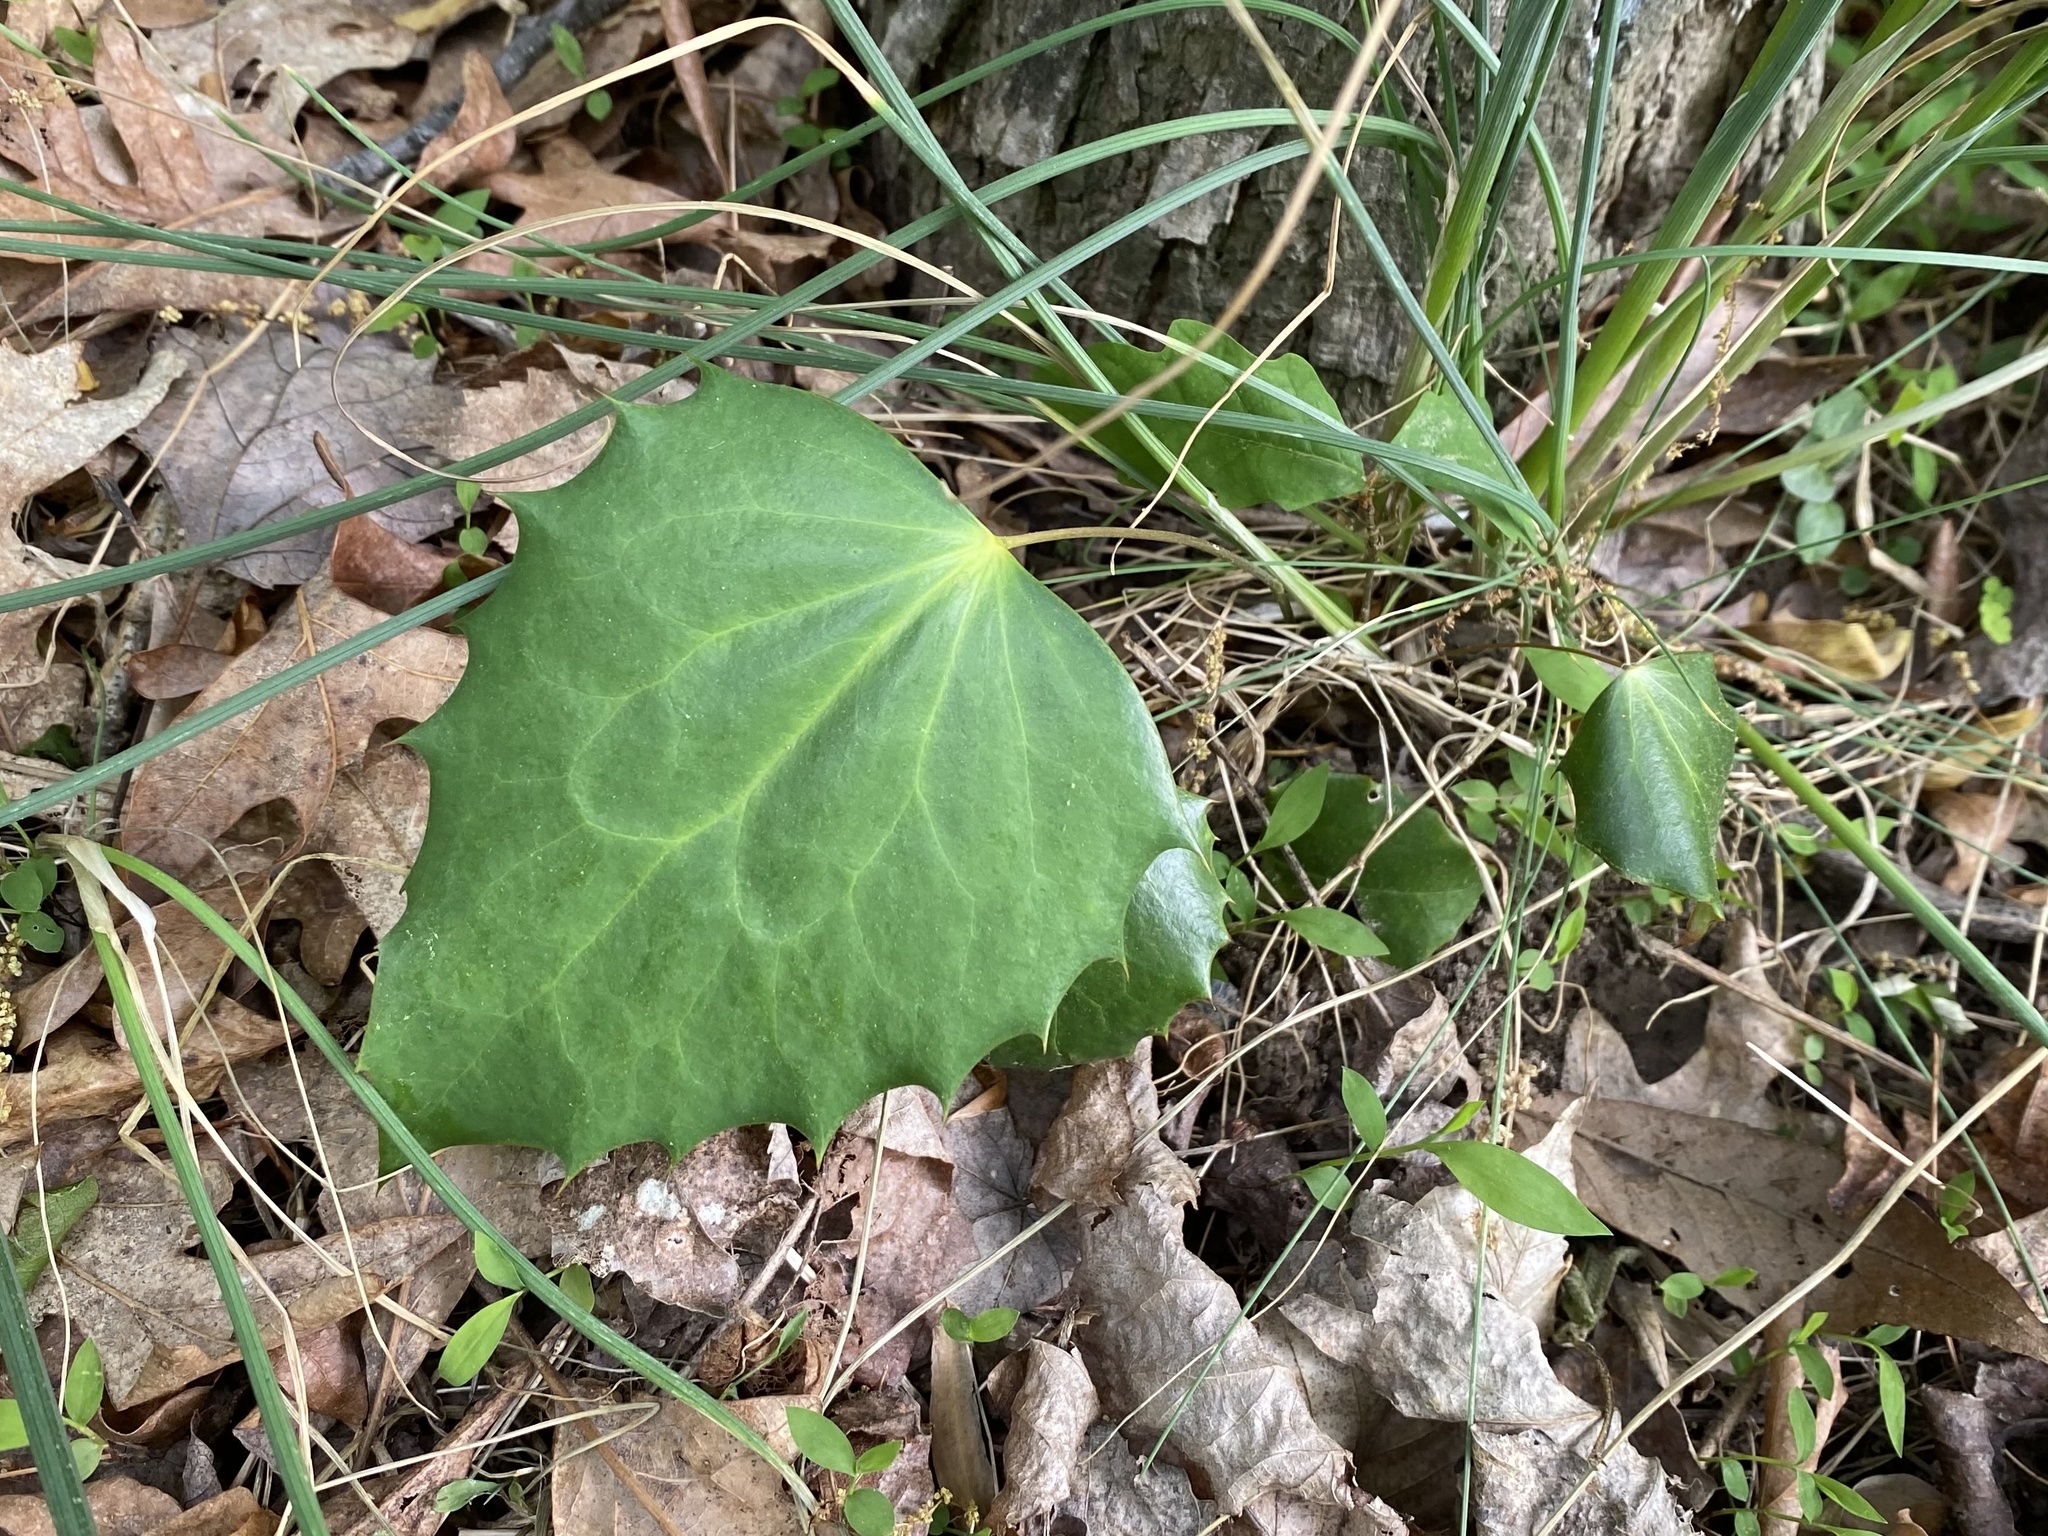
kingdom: Plantae
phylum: Tracheophyta
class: Magnoliopsida
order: Ranunculales
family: Berberidaceae
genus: Mahonia
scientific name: Mahonia bealei
